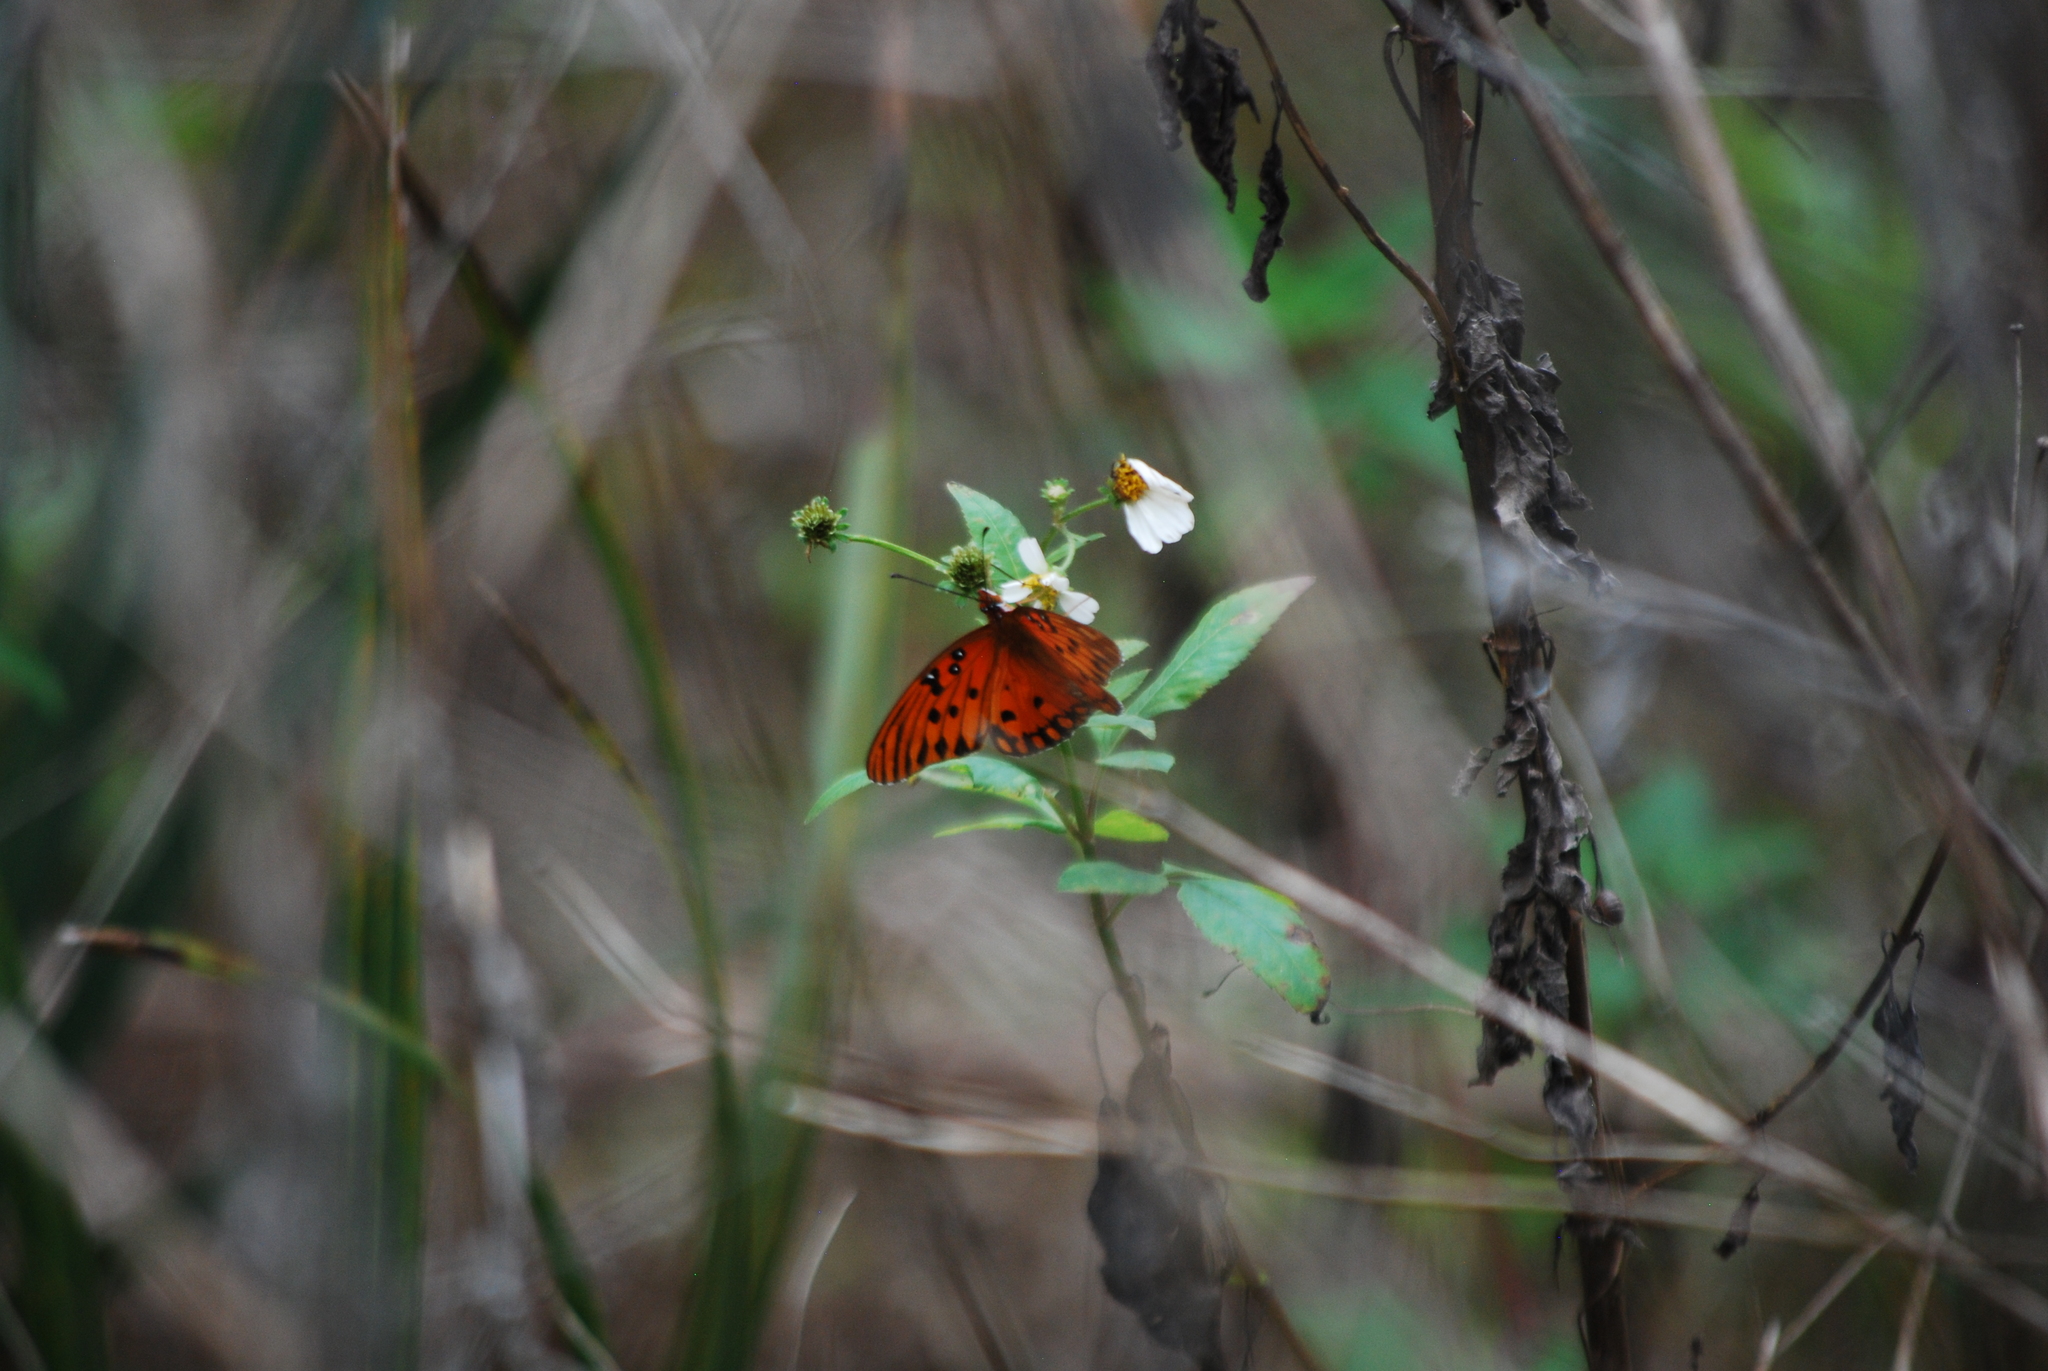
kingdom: Animalia
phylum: Arthropoda
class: Insecta
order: Lepidoptera
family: Nymphalidae
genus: Dione
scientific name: Dione vanillae
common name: Gulf fritillary
